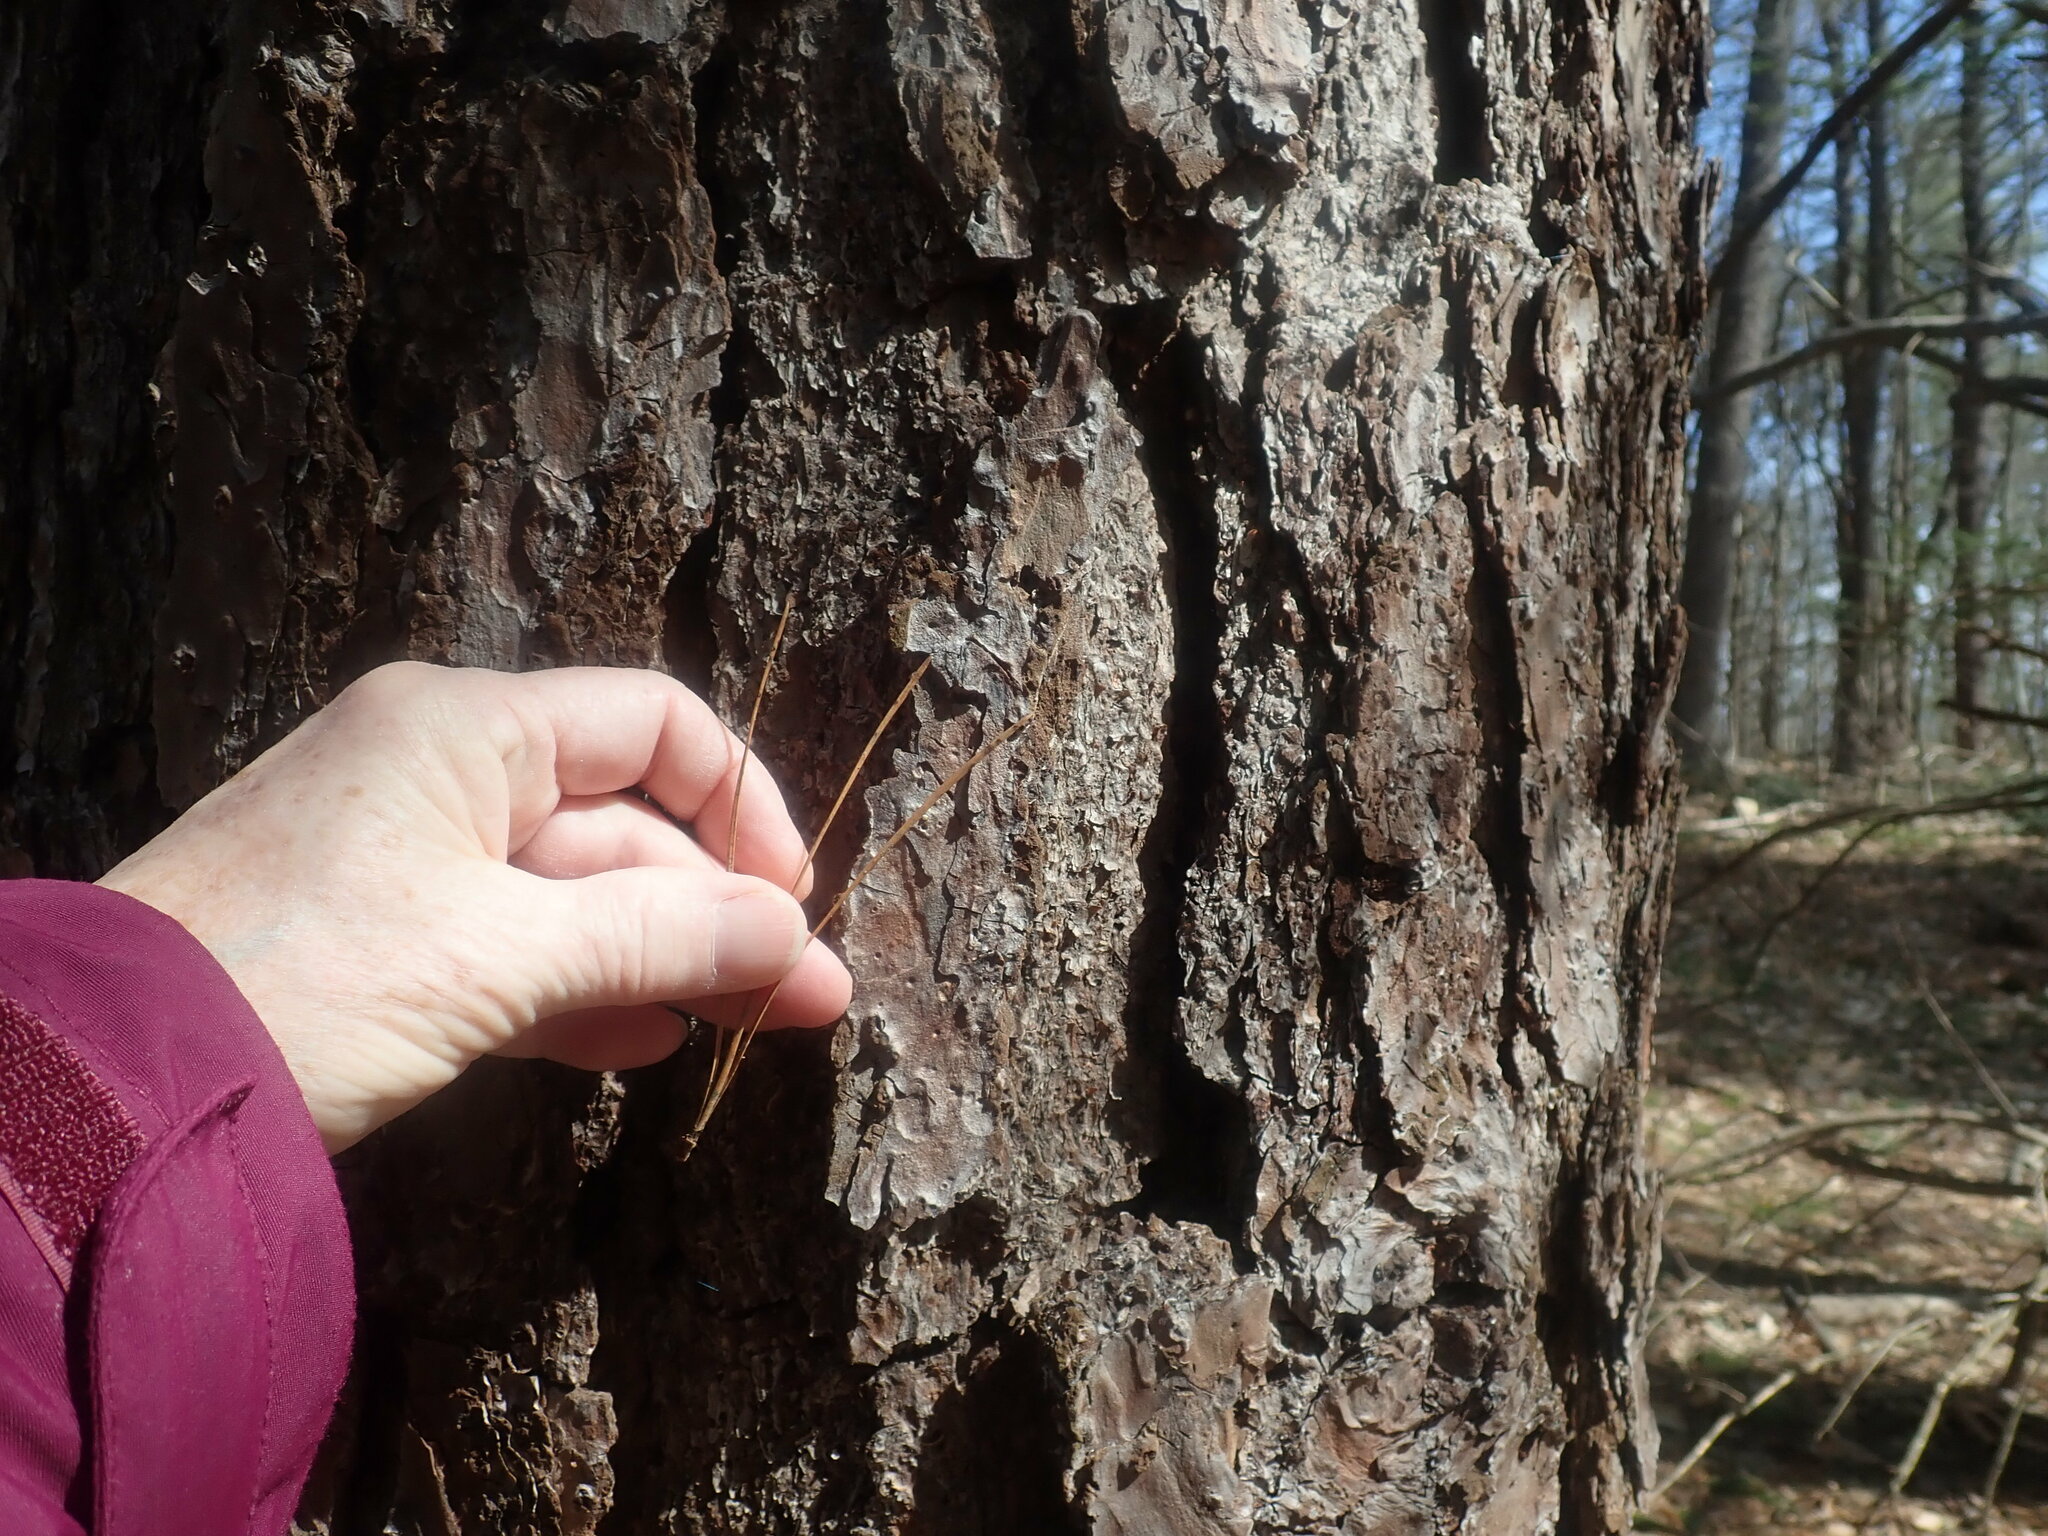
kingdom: Plantae
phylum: Tracheophyta
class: Pinopsida
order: Pinales
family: Pinaceae
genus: Pinus
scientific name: Pinus rigida
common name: Pitch pine
